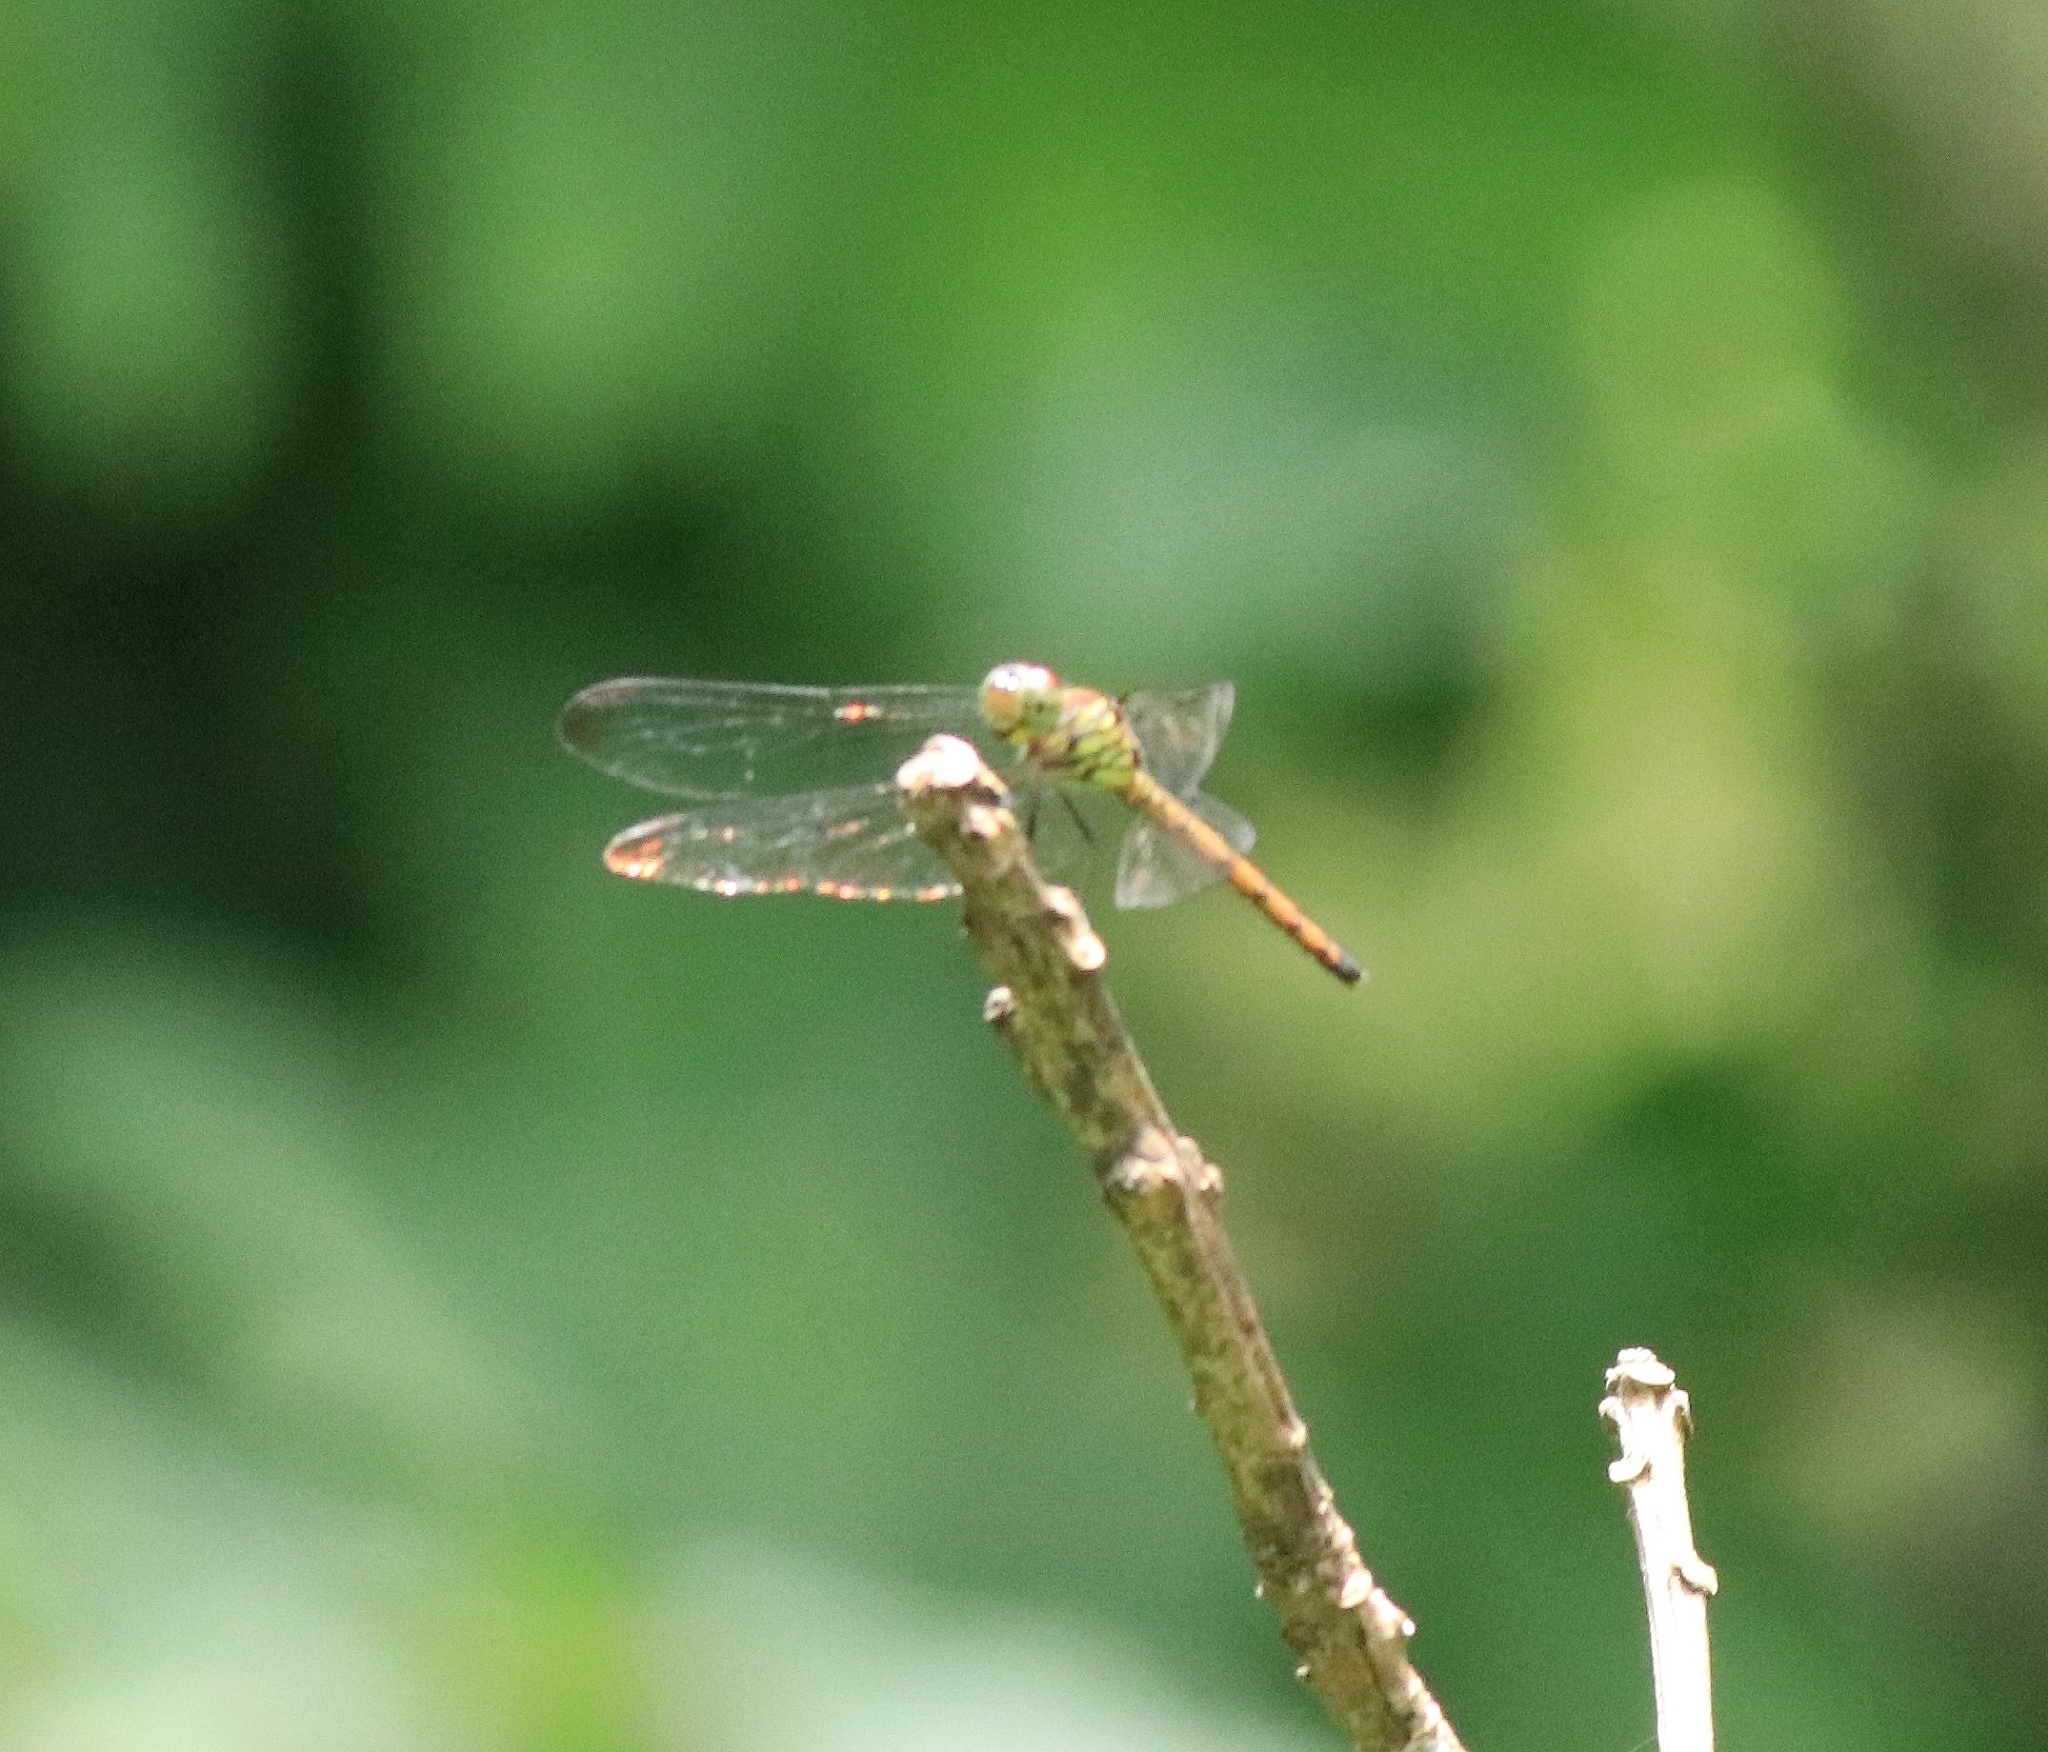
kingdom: Animalia
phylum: Arthropoda
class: Insecta
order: Odonata
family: Libellulidae
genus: Lathrecista
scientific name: Lathrecista asiatica
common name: Scarlet grenadier
